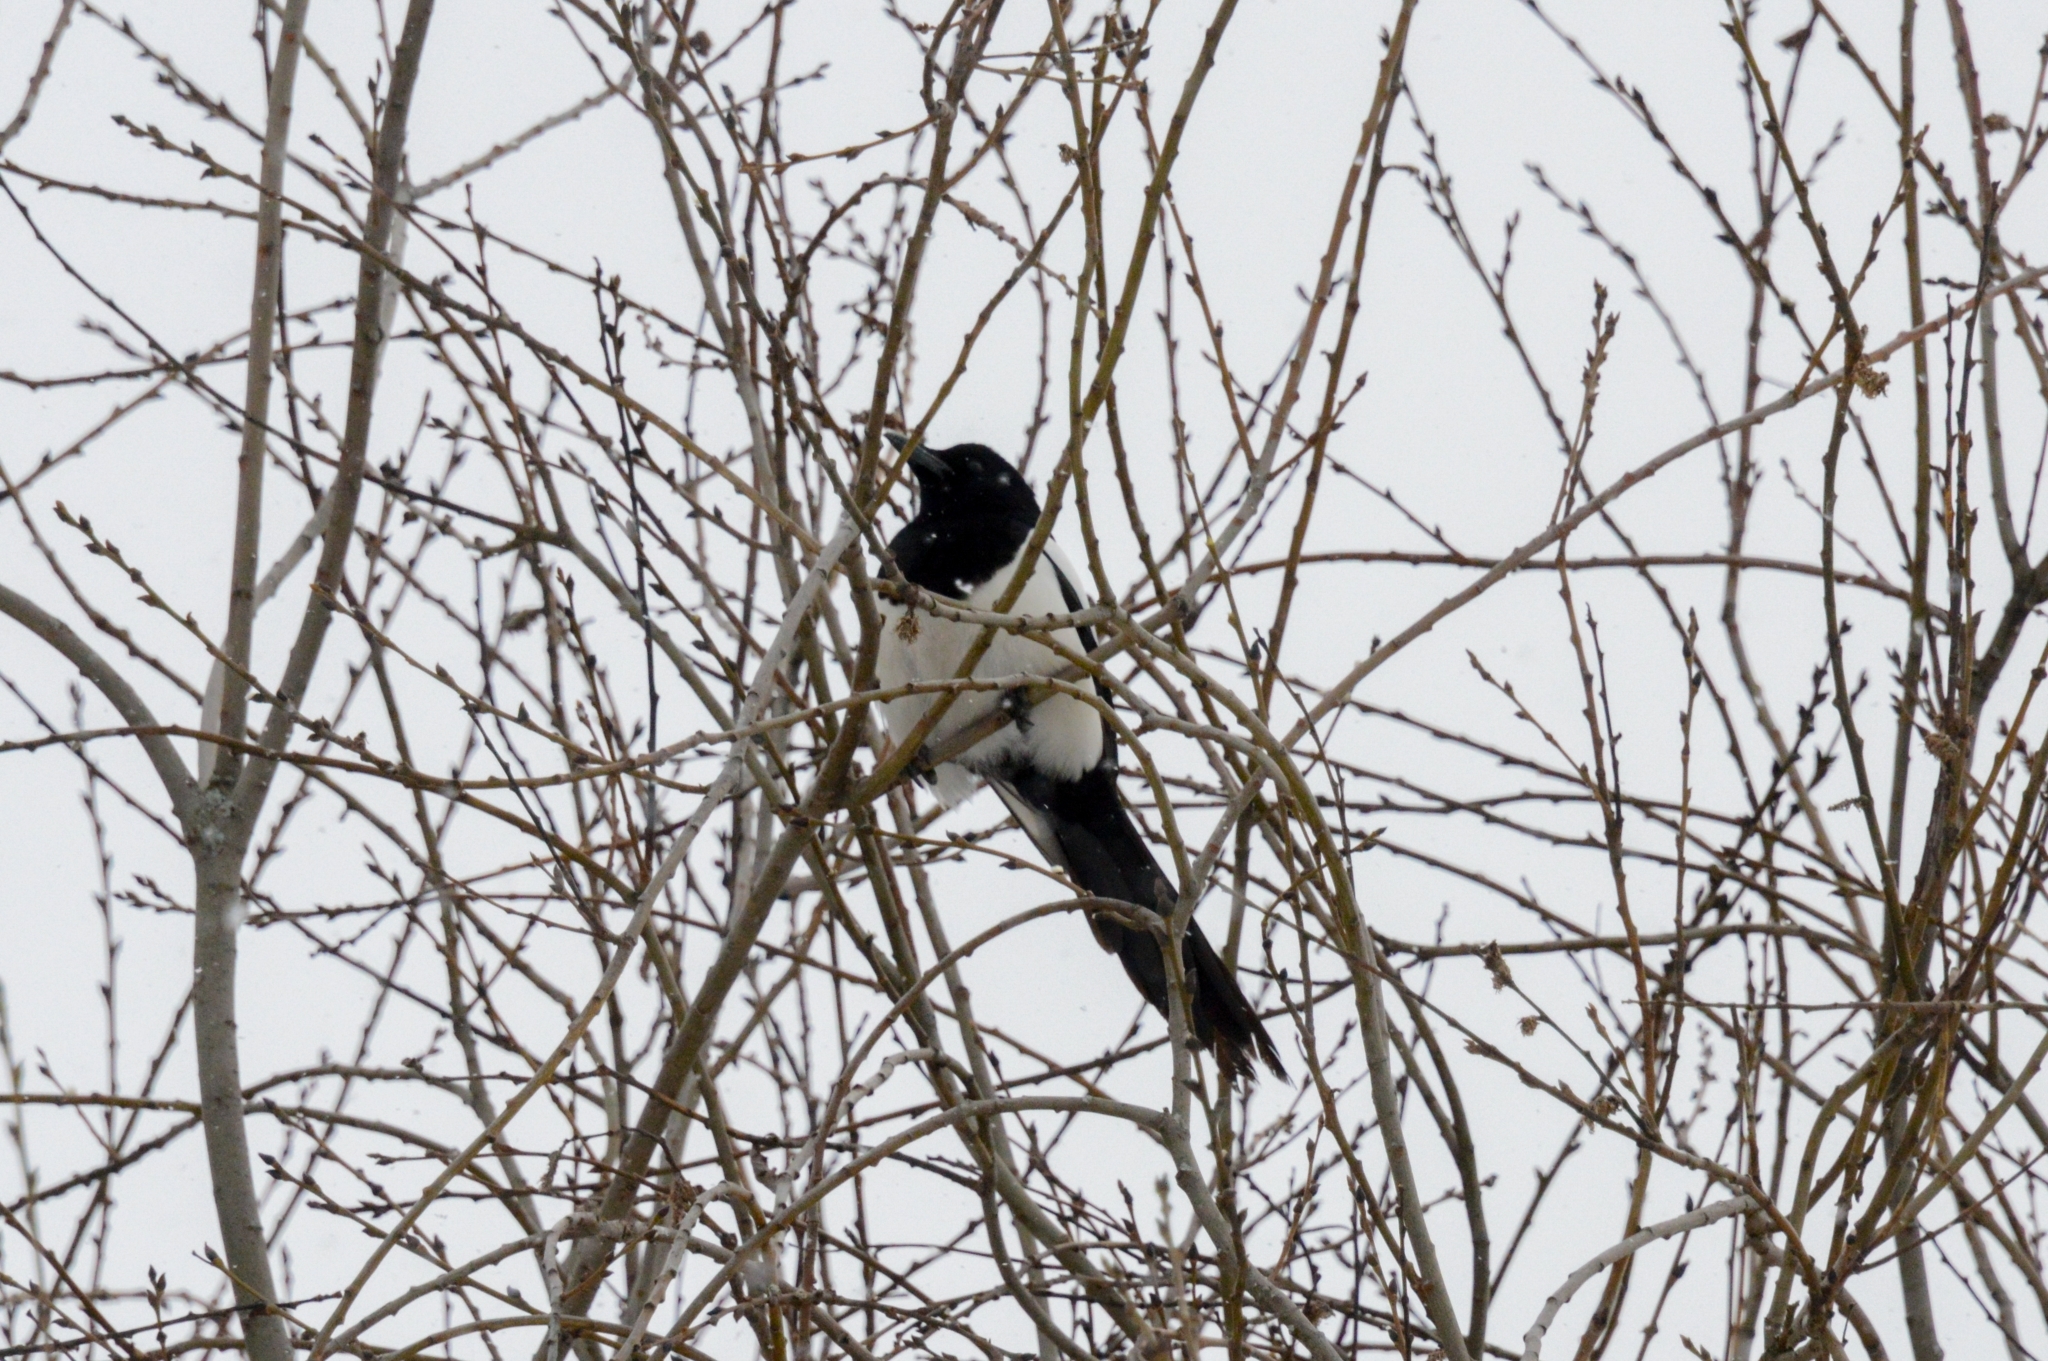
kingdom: Animalia
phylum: Chordata
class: Aves
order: Passeriformes
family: Corvidae
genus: Pica
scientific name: Pica pica
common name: Eurasian magpie
